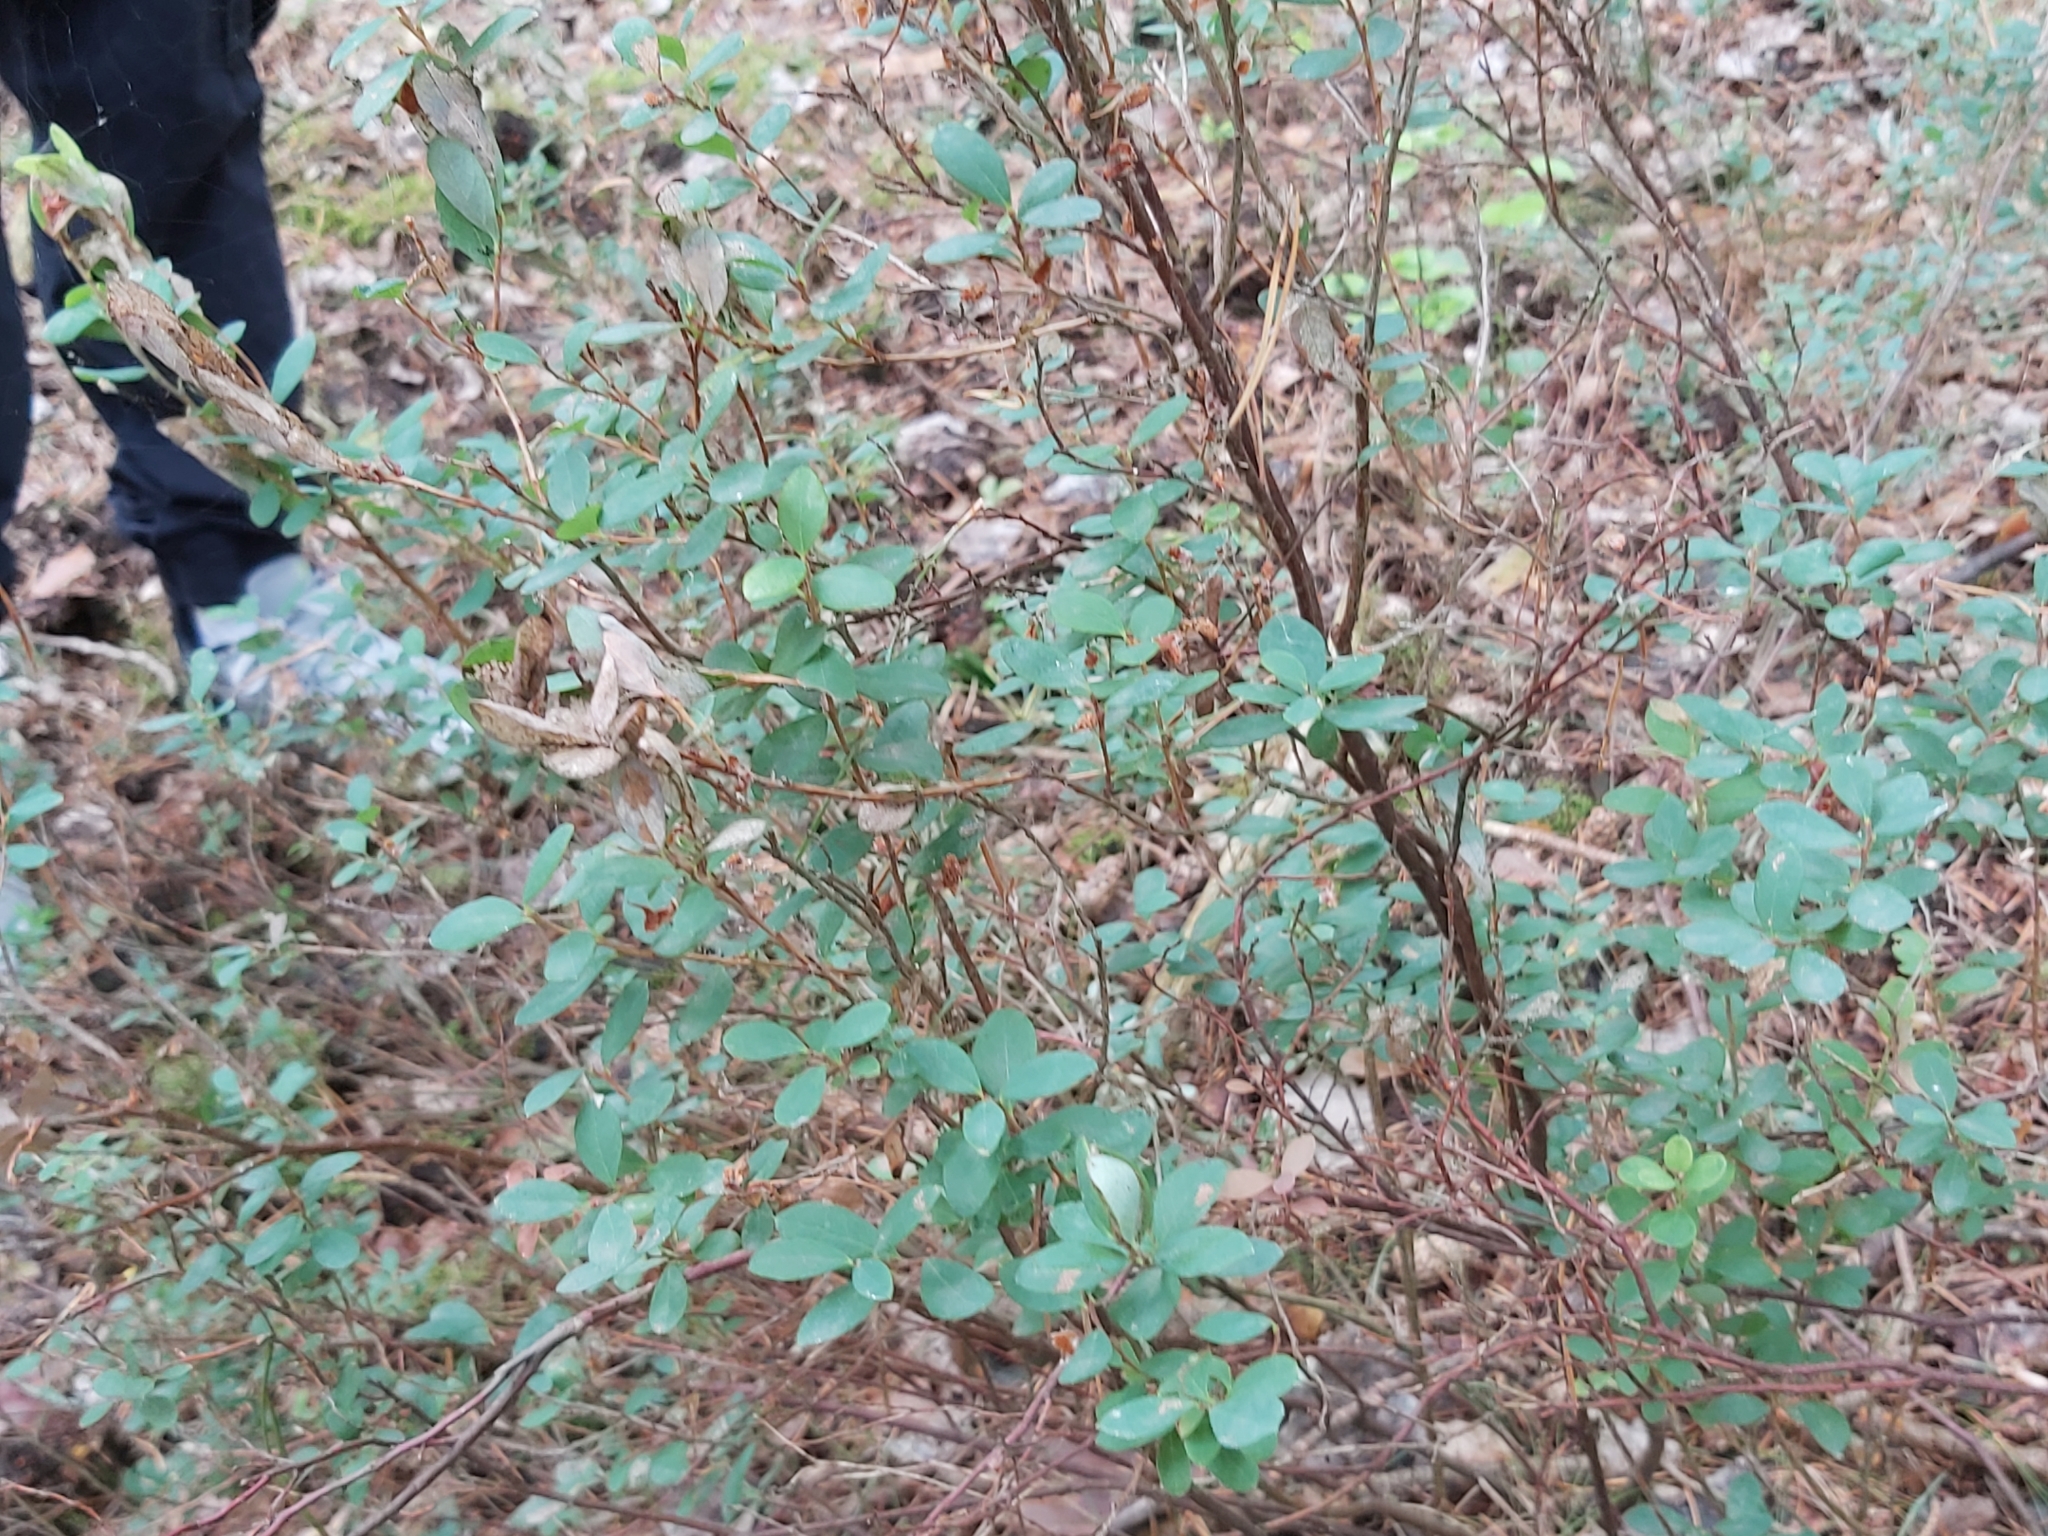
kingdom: Plantae
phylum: Tracheophyta
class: Magnoliopsida
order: Ericales
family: Ericaceae
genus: Vaccinium
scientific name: Vaccinium uliginosum
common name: Bog bilberry
